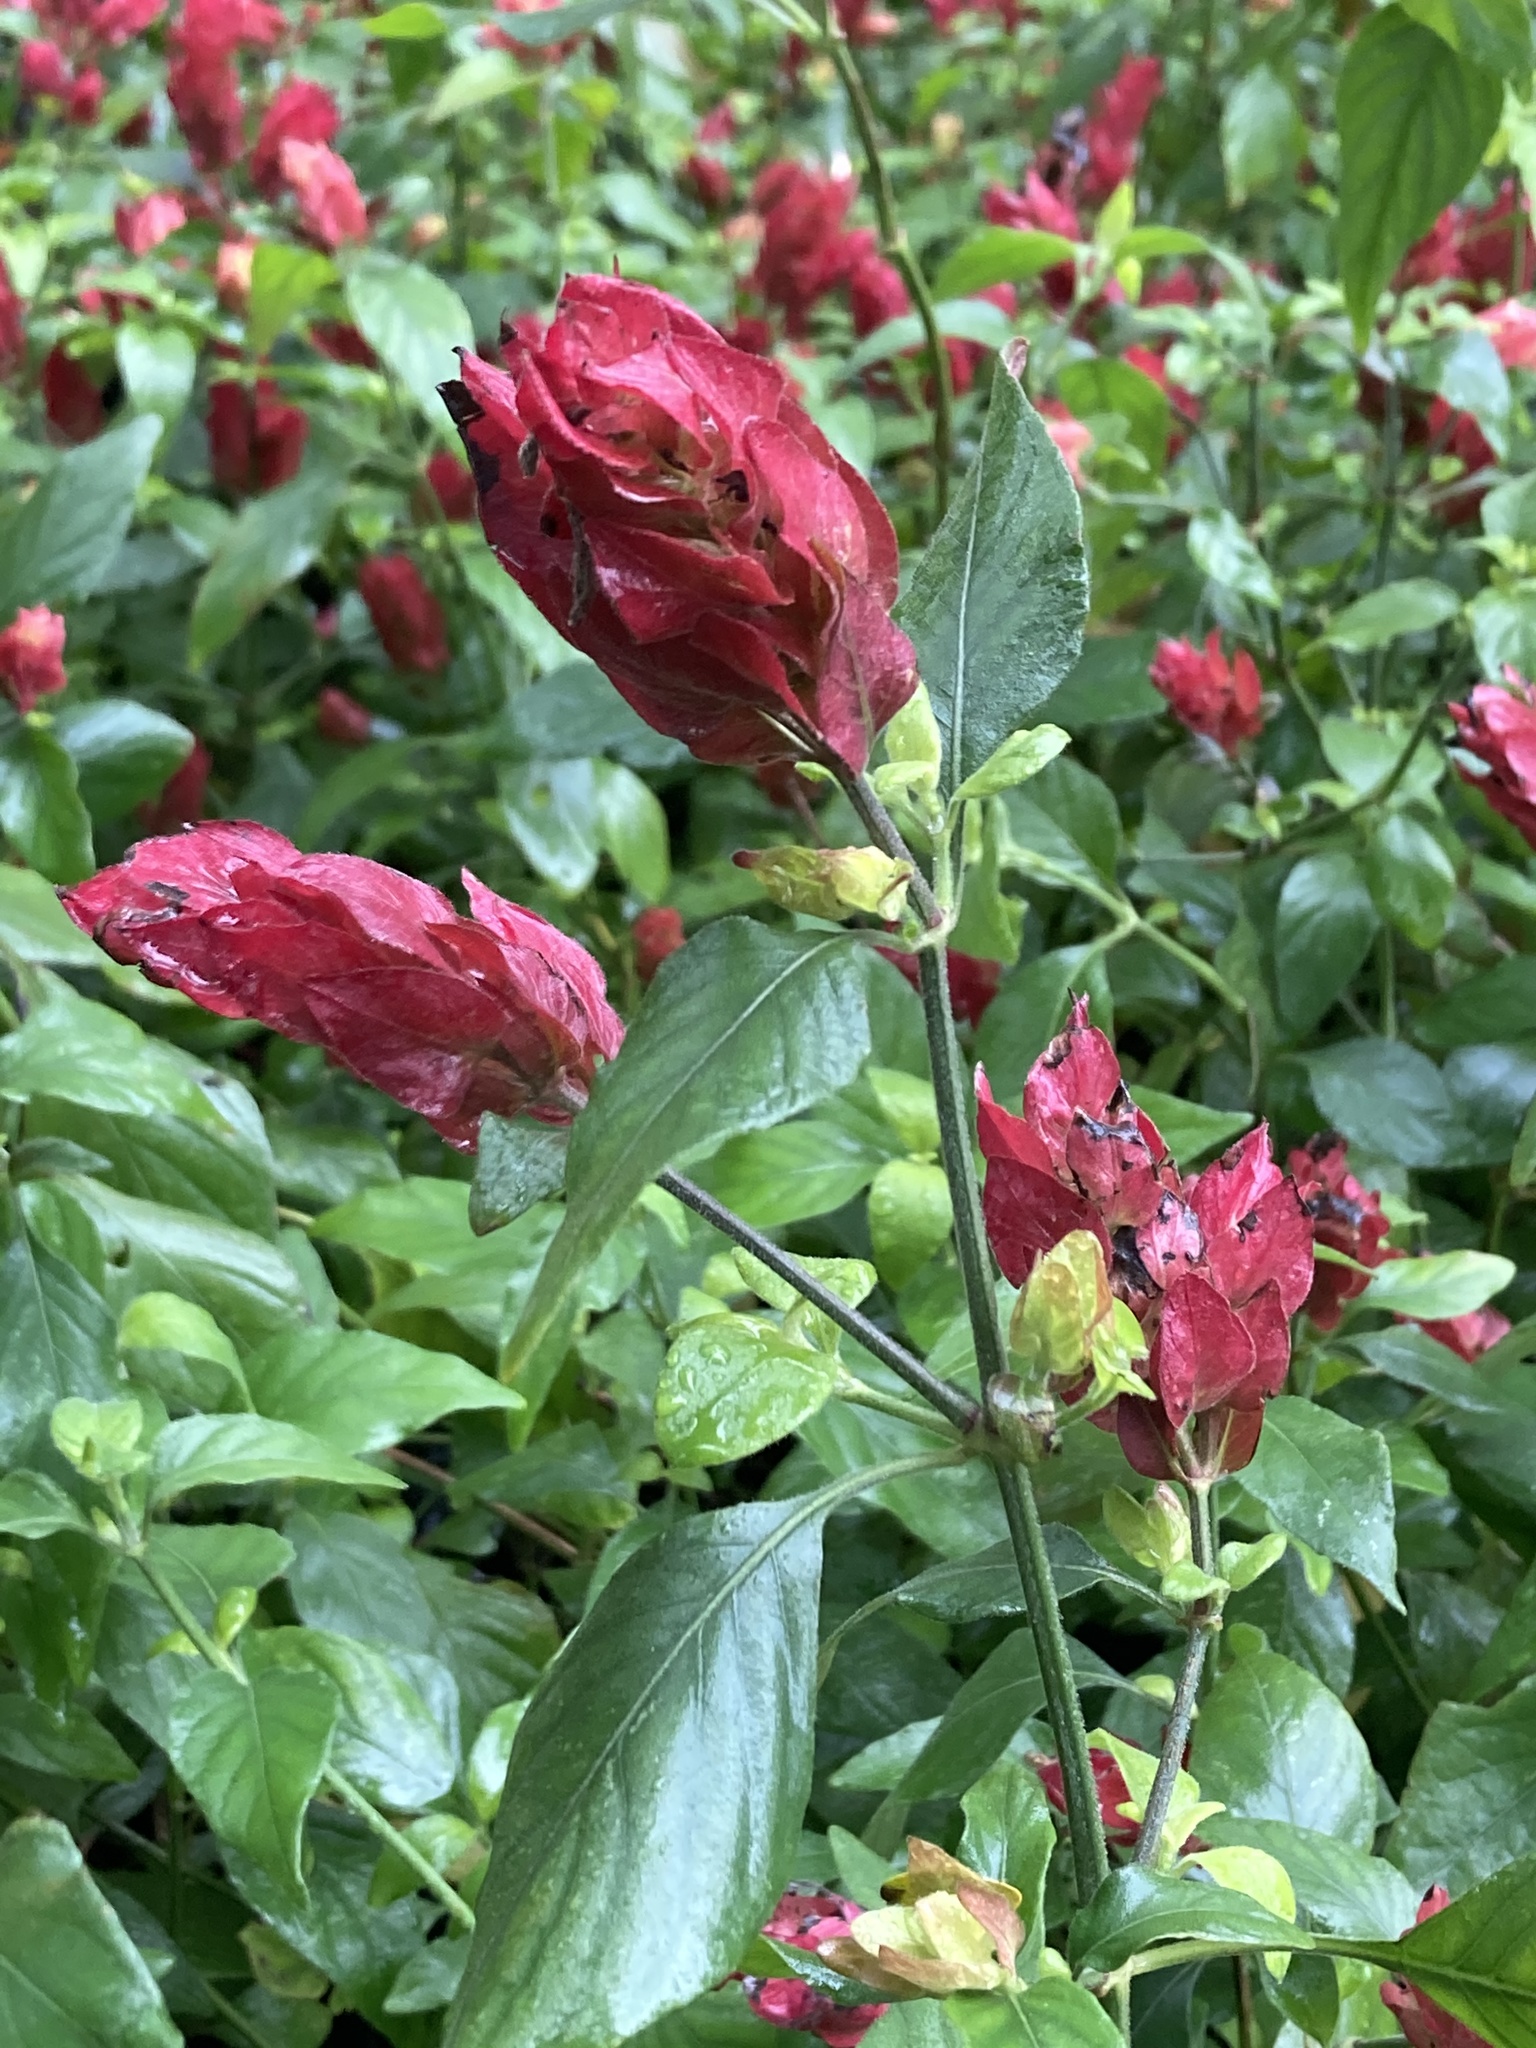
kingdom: Plantae
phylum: Tracheophyta
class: Magnoliopsida
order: Lamiales
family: Acanthaceae
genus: Justicia
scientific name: Justicia brandegeeana
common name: Shrimpplant
